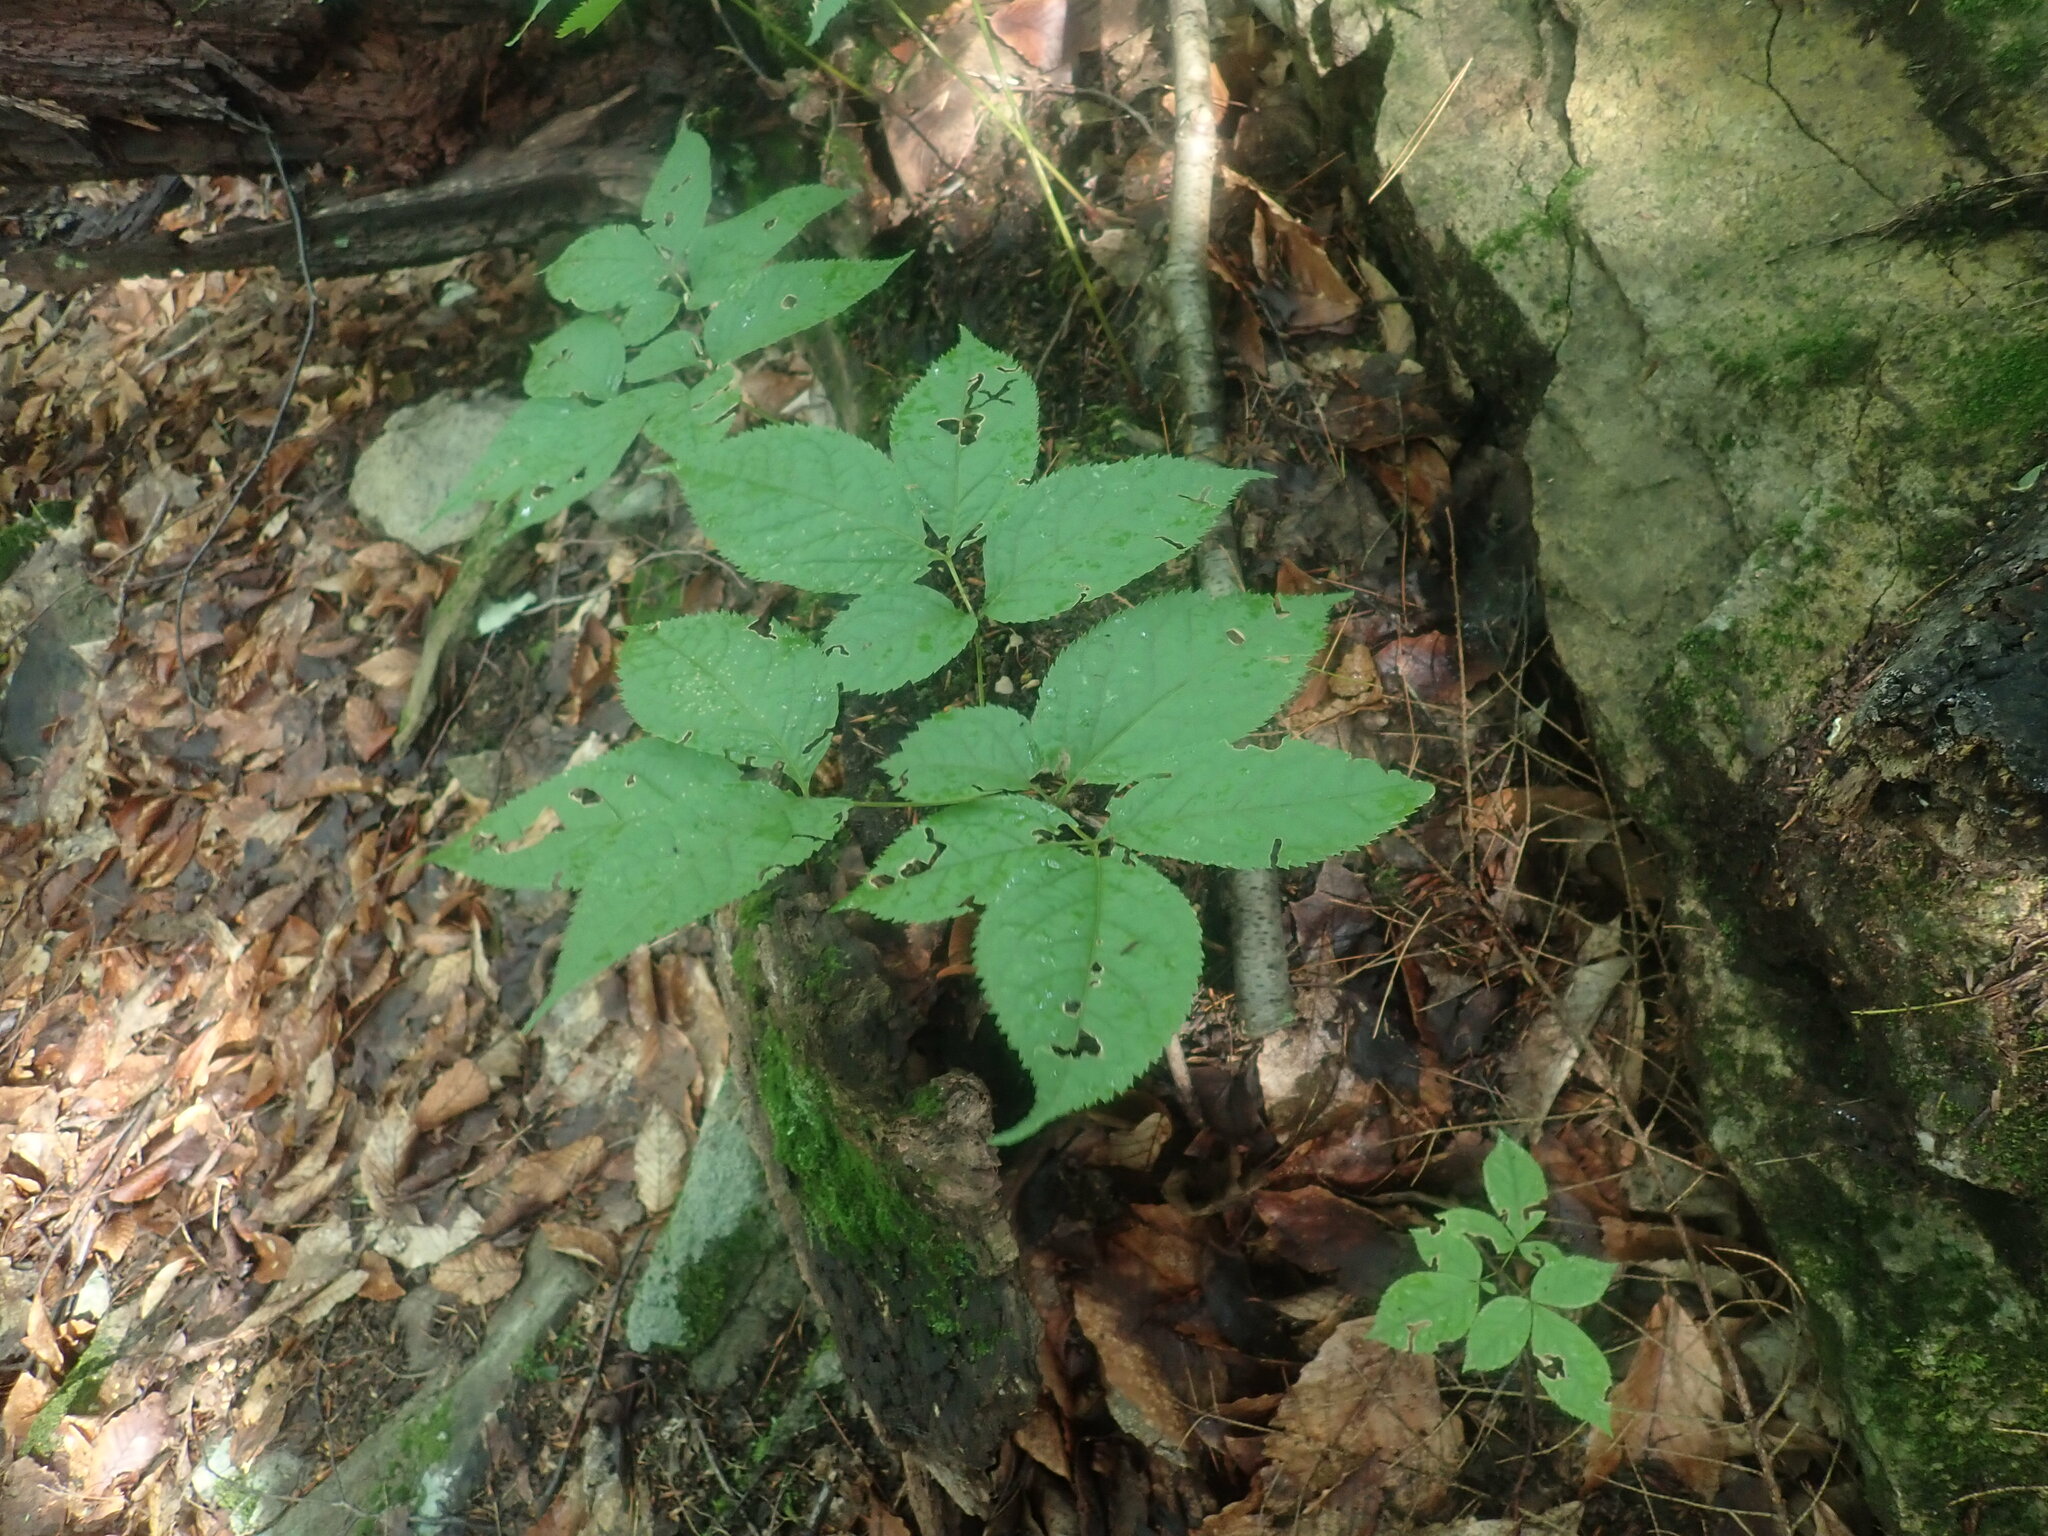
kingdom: Plantae
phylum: Tracheophyta
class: Magnoliopsida
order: Apiales
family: Araliaceae
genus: Aralia
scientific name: Aralia nudicaulis
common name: Wild sarsaparilla
